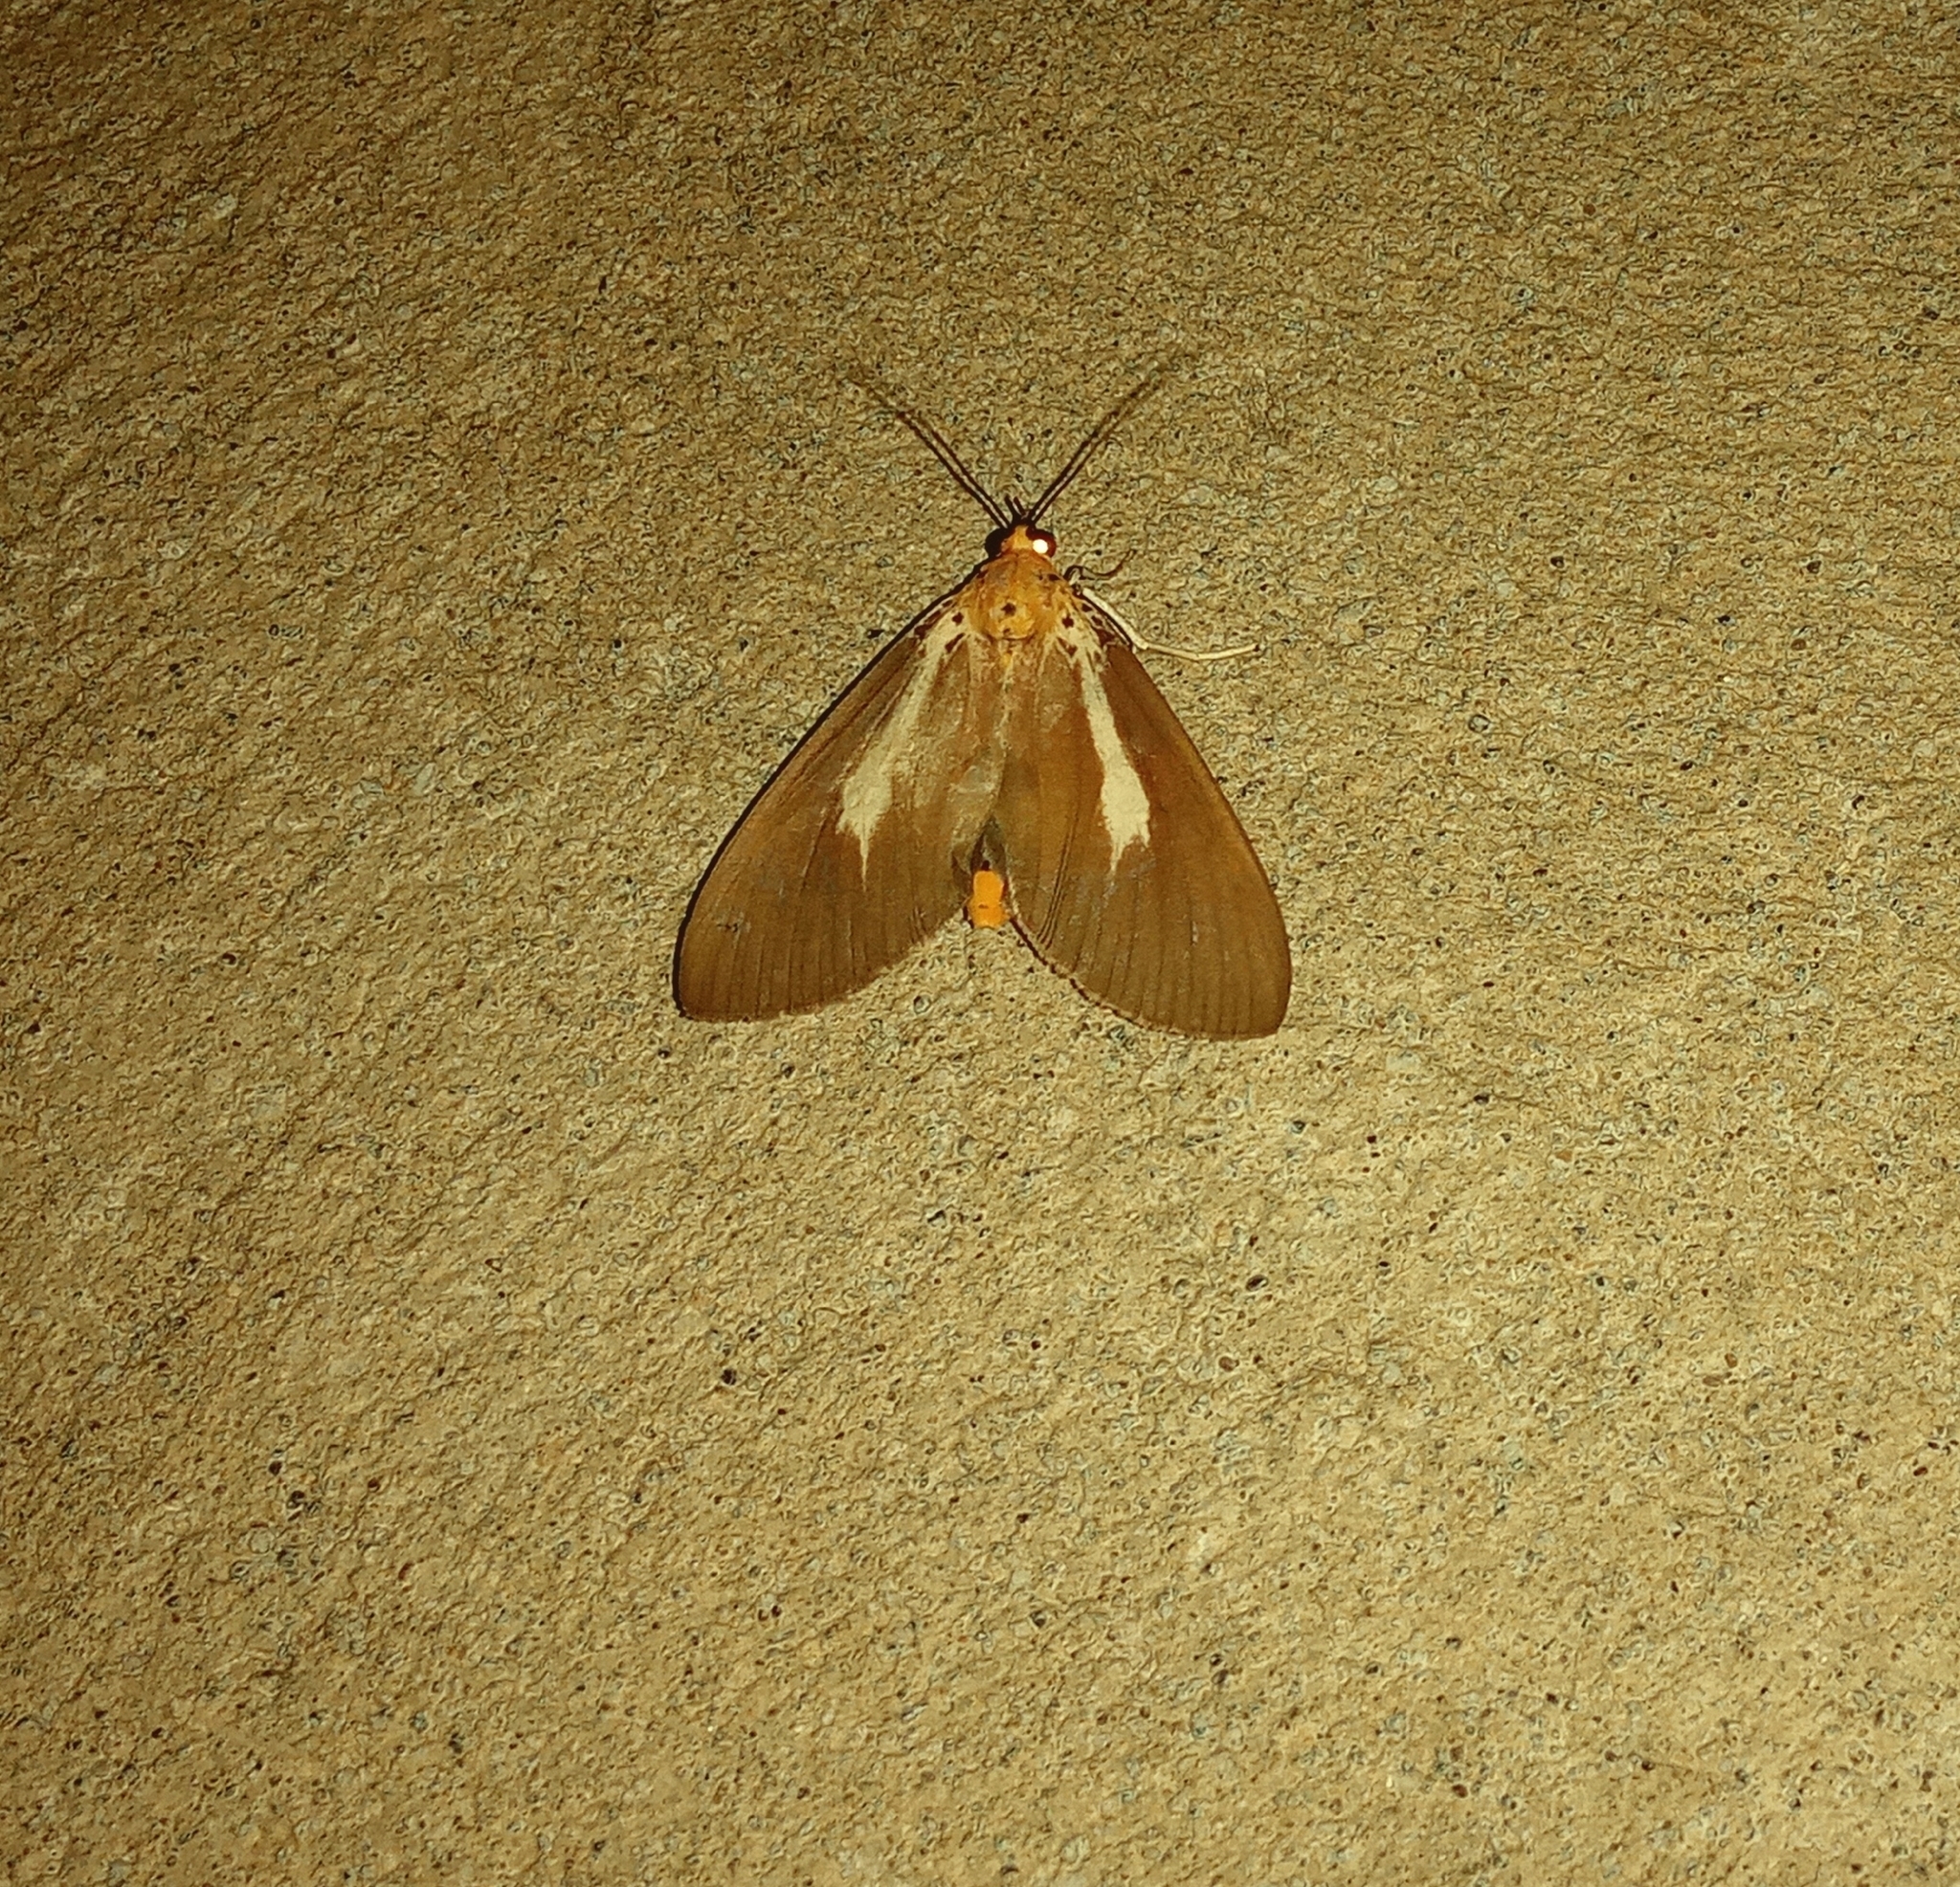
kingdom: Animalia
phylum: Arthropoda
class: Insecta
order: Lepidoptera
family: Erebidae
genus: Asota
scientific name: Asota heliconia
